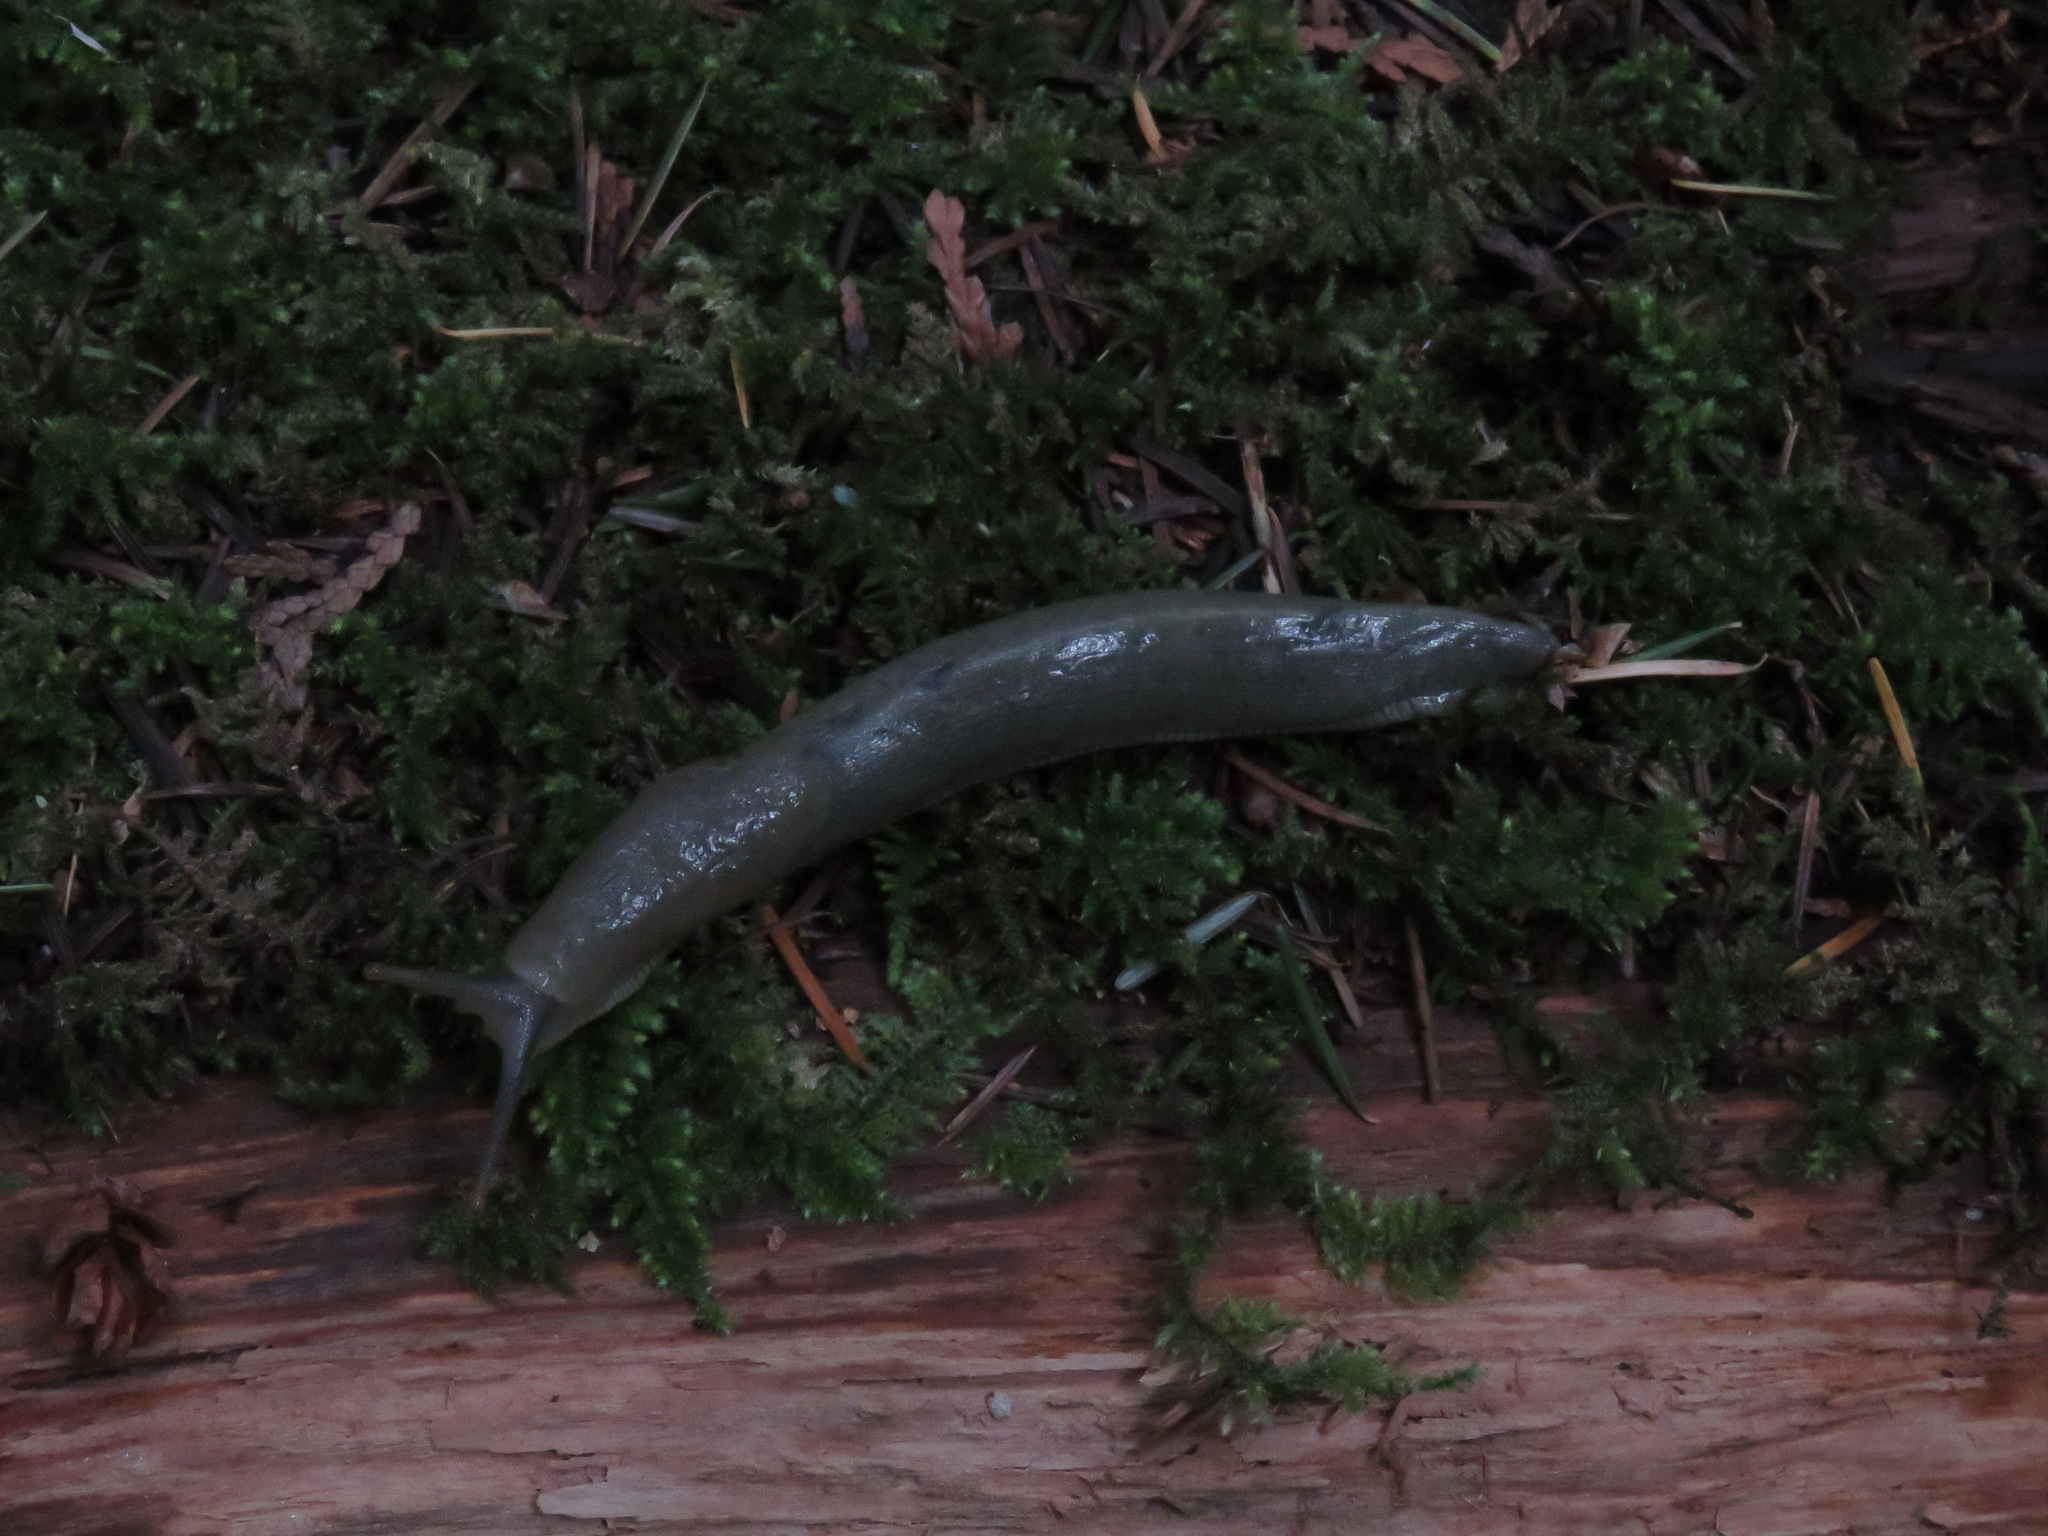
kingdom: Animalia
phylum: Mollusca
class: Gastropoda
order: Stylommatophora
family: Ariolimacidae
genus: Ariolimax
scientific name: Ariolimax columbianus
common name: Pacific banana slug
